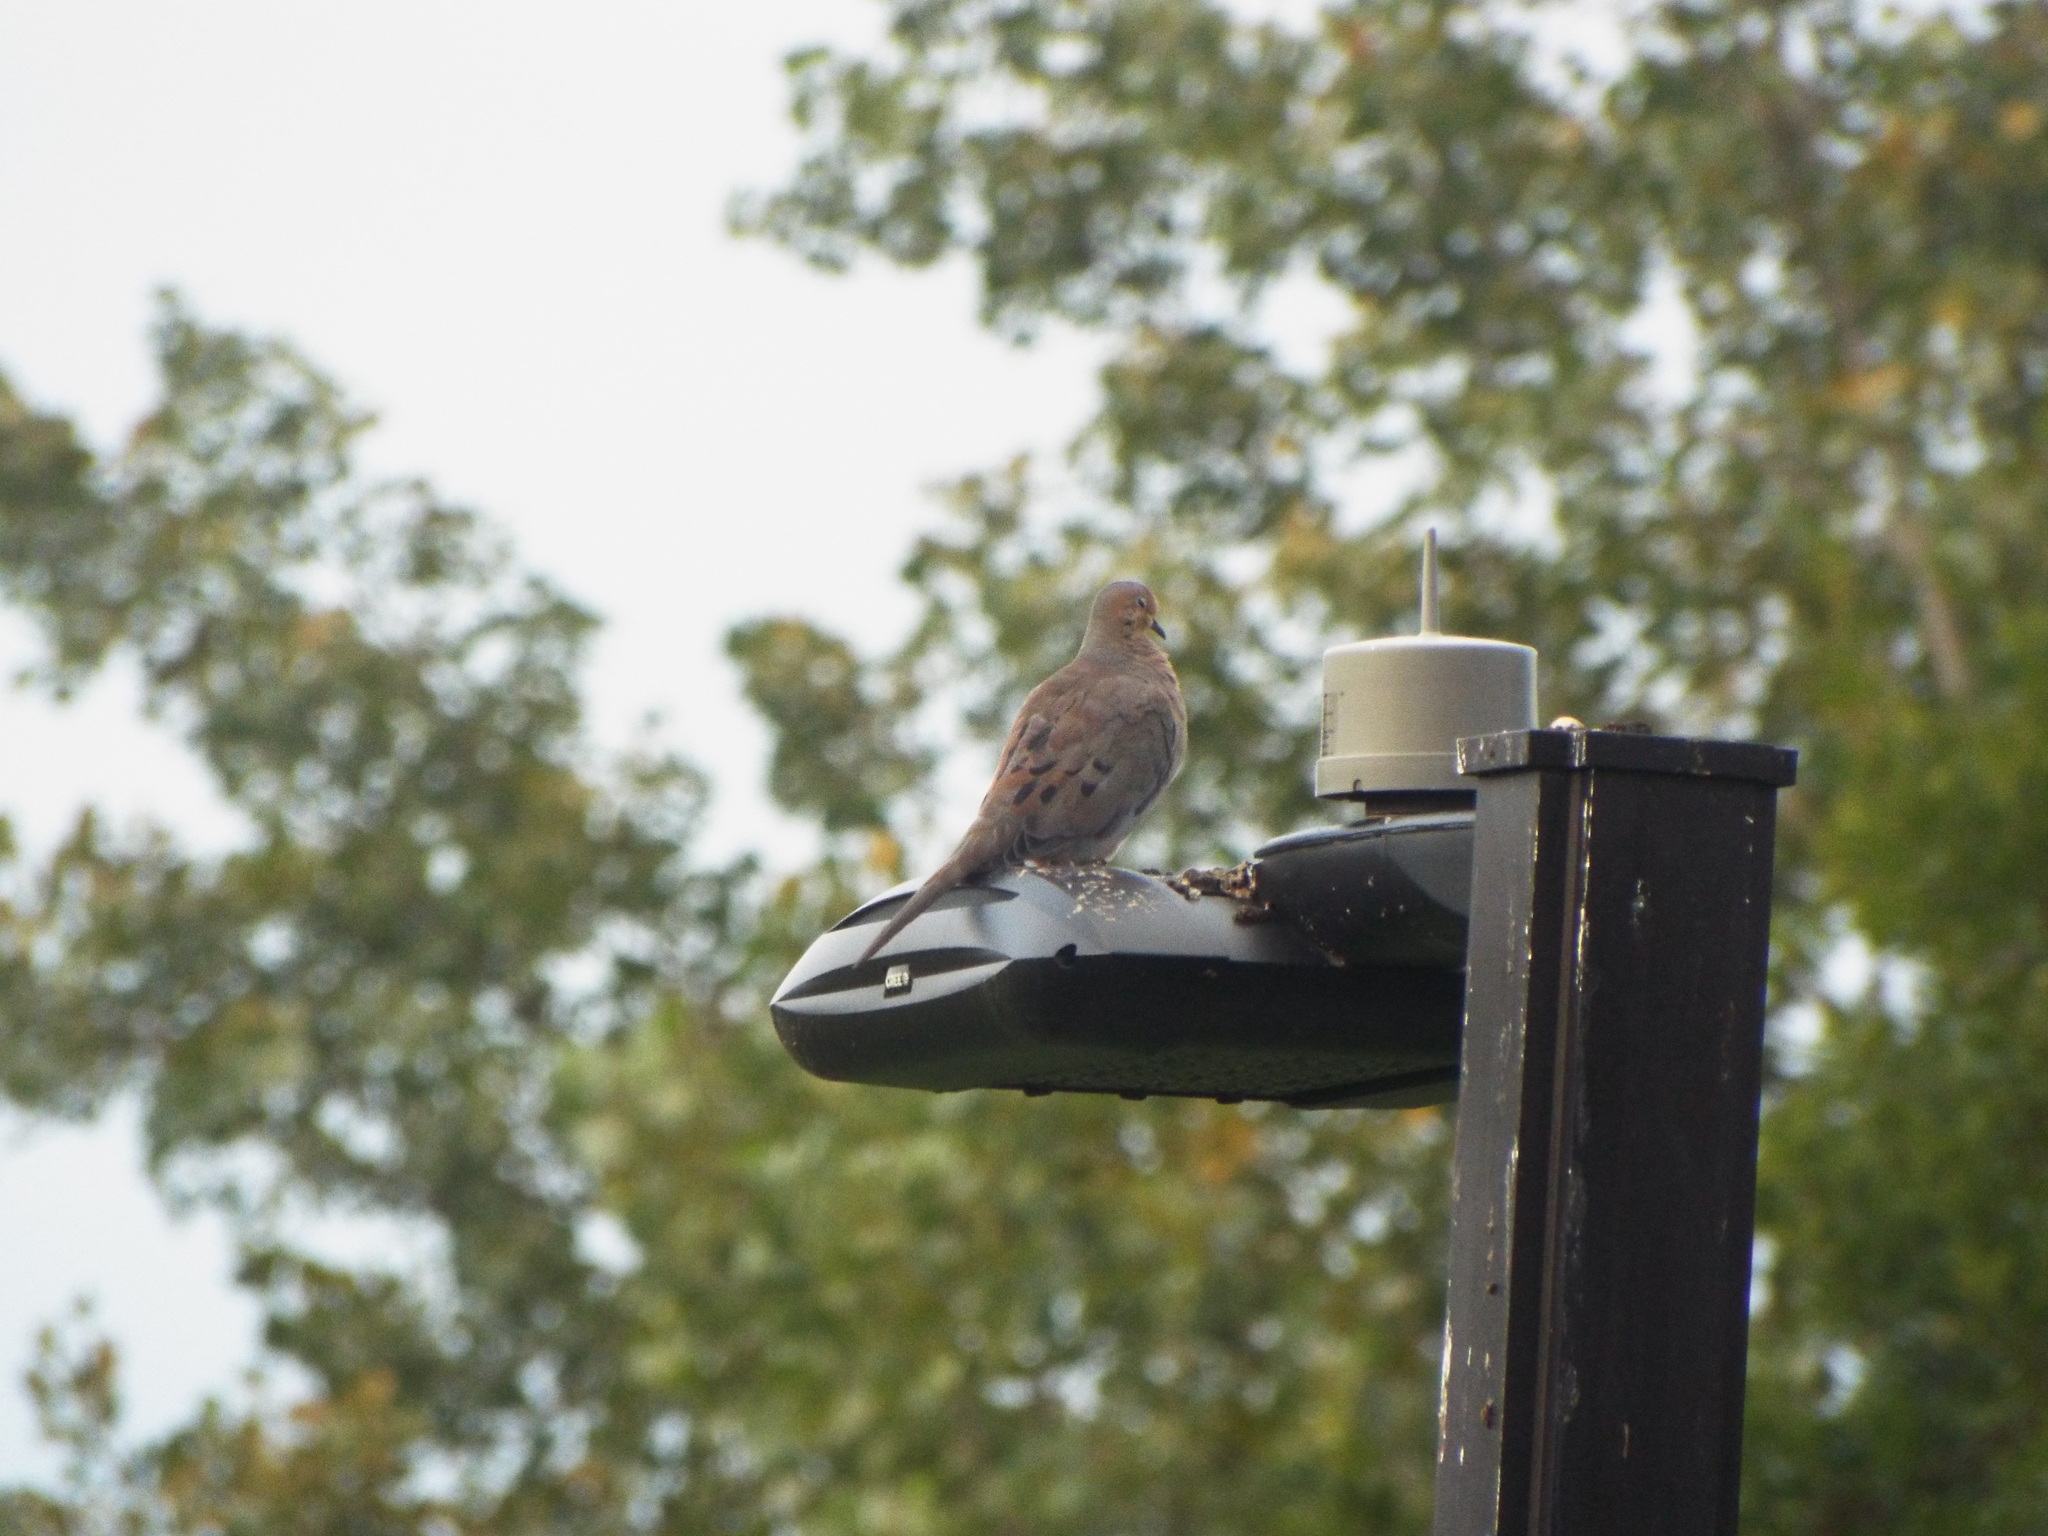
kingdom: Animalia
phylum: Chordata
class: Aves
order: Columbiformes
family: Columbidae
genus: Zenaida
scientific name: Zenaida macroura
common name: Mourning dove
